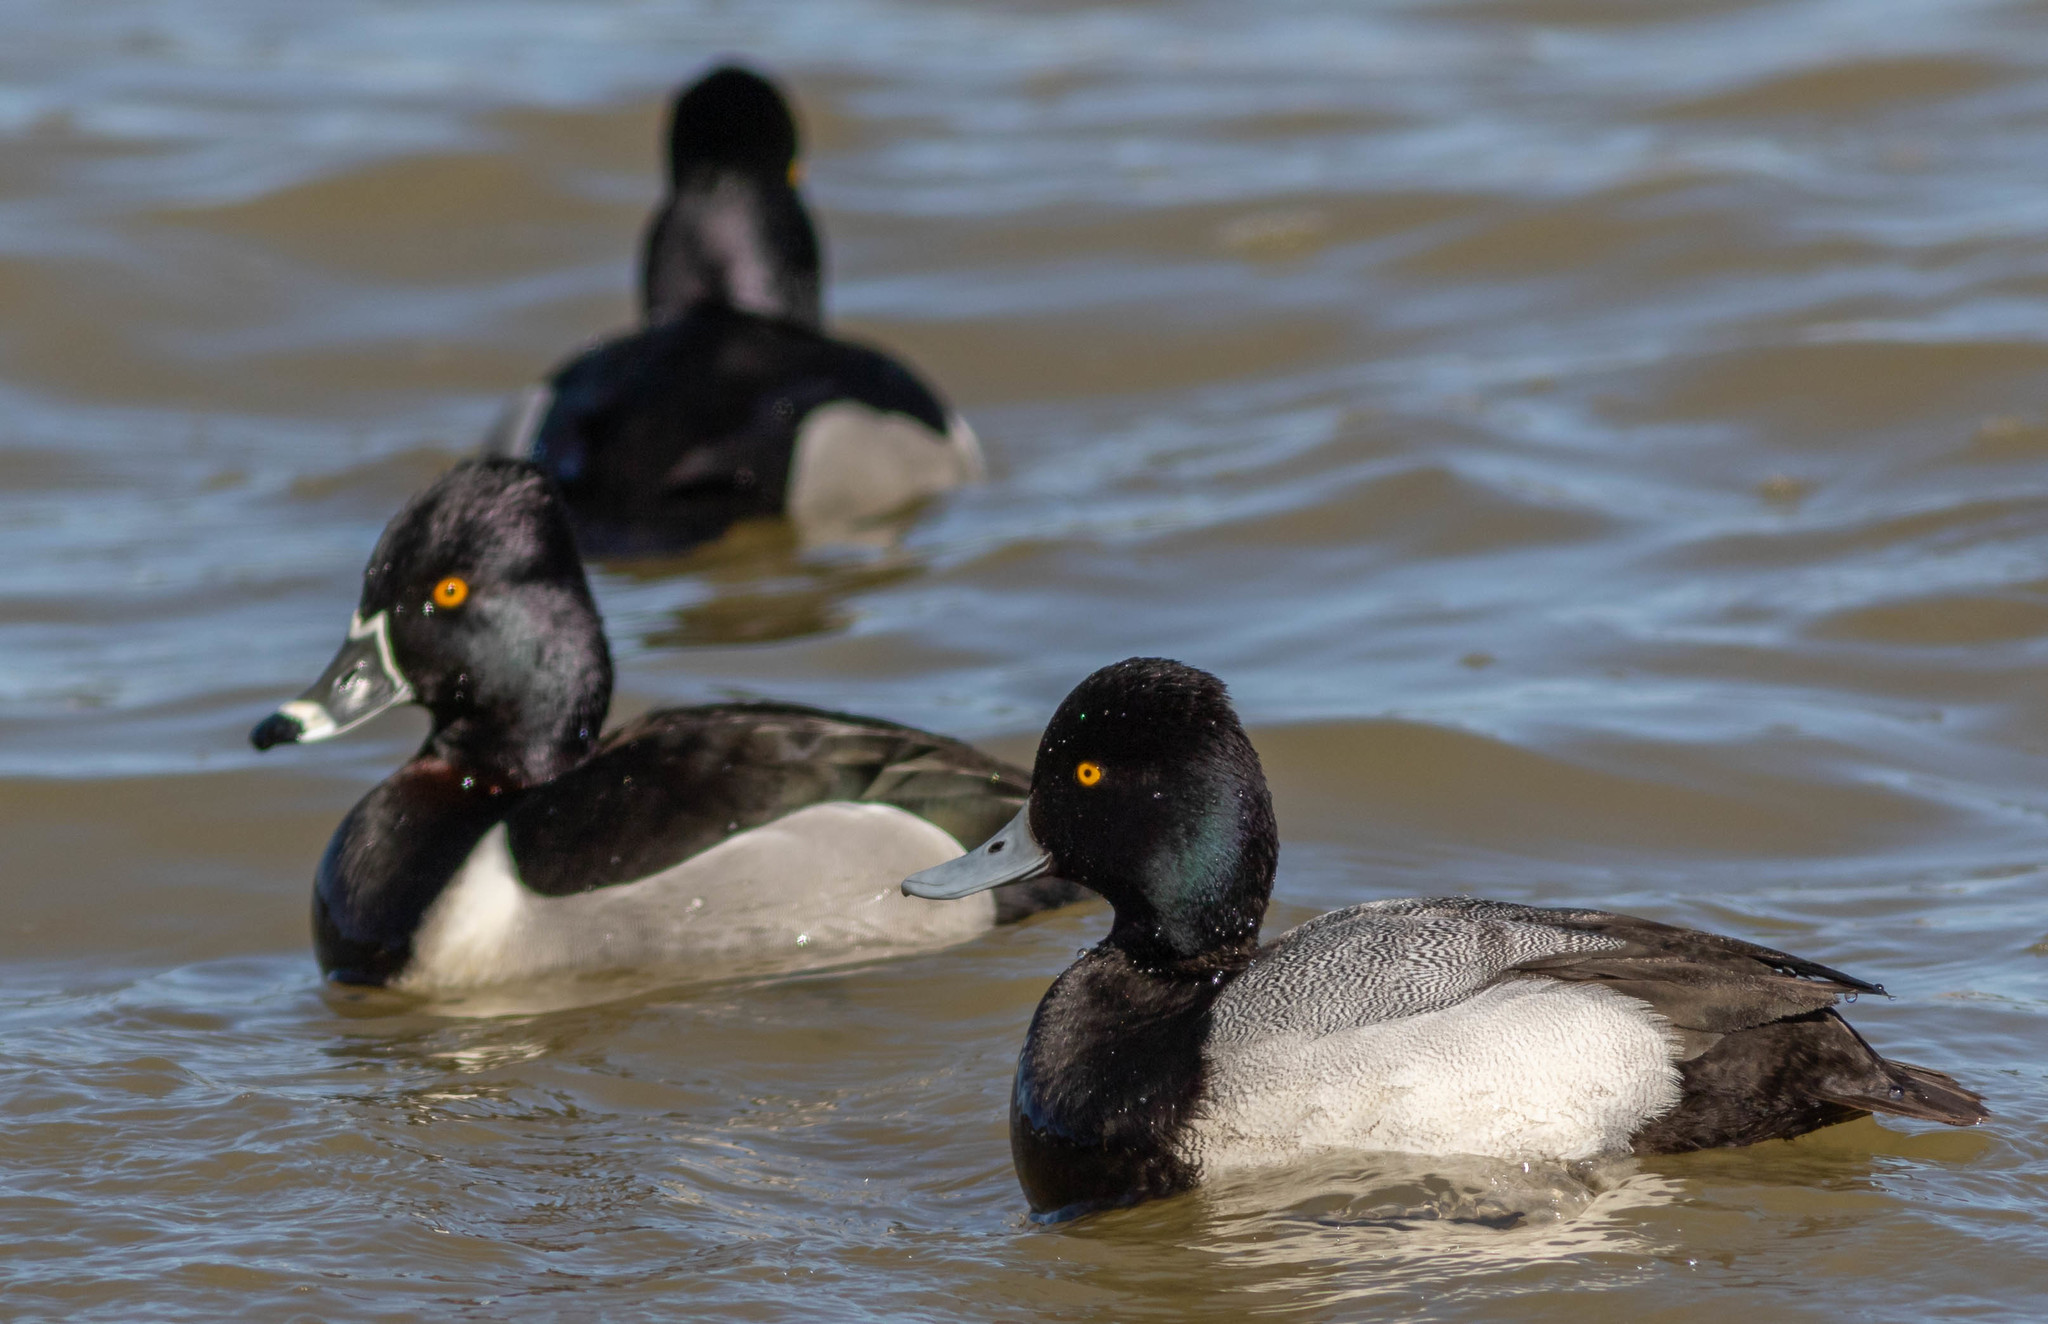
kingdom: Animalia
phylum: Chordata
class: Aves
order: Anseriformes
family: Anatidae
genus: Aythya
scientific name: Aythya affinis
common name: Lesser scaup
